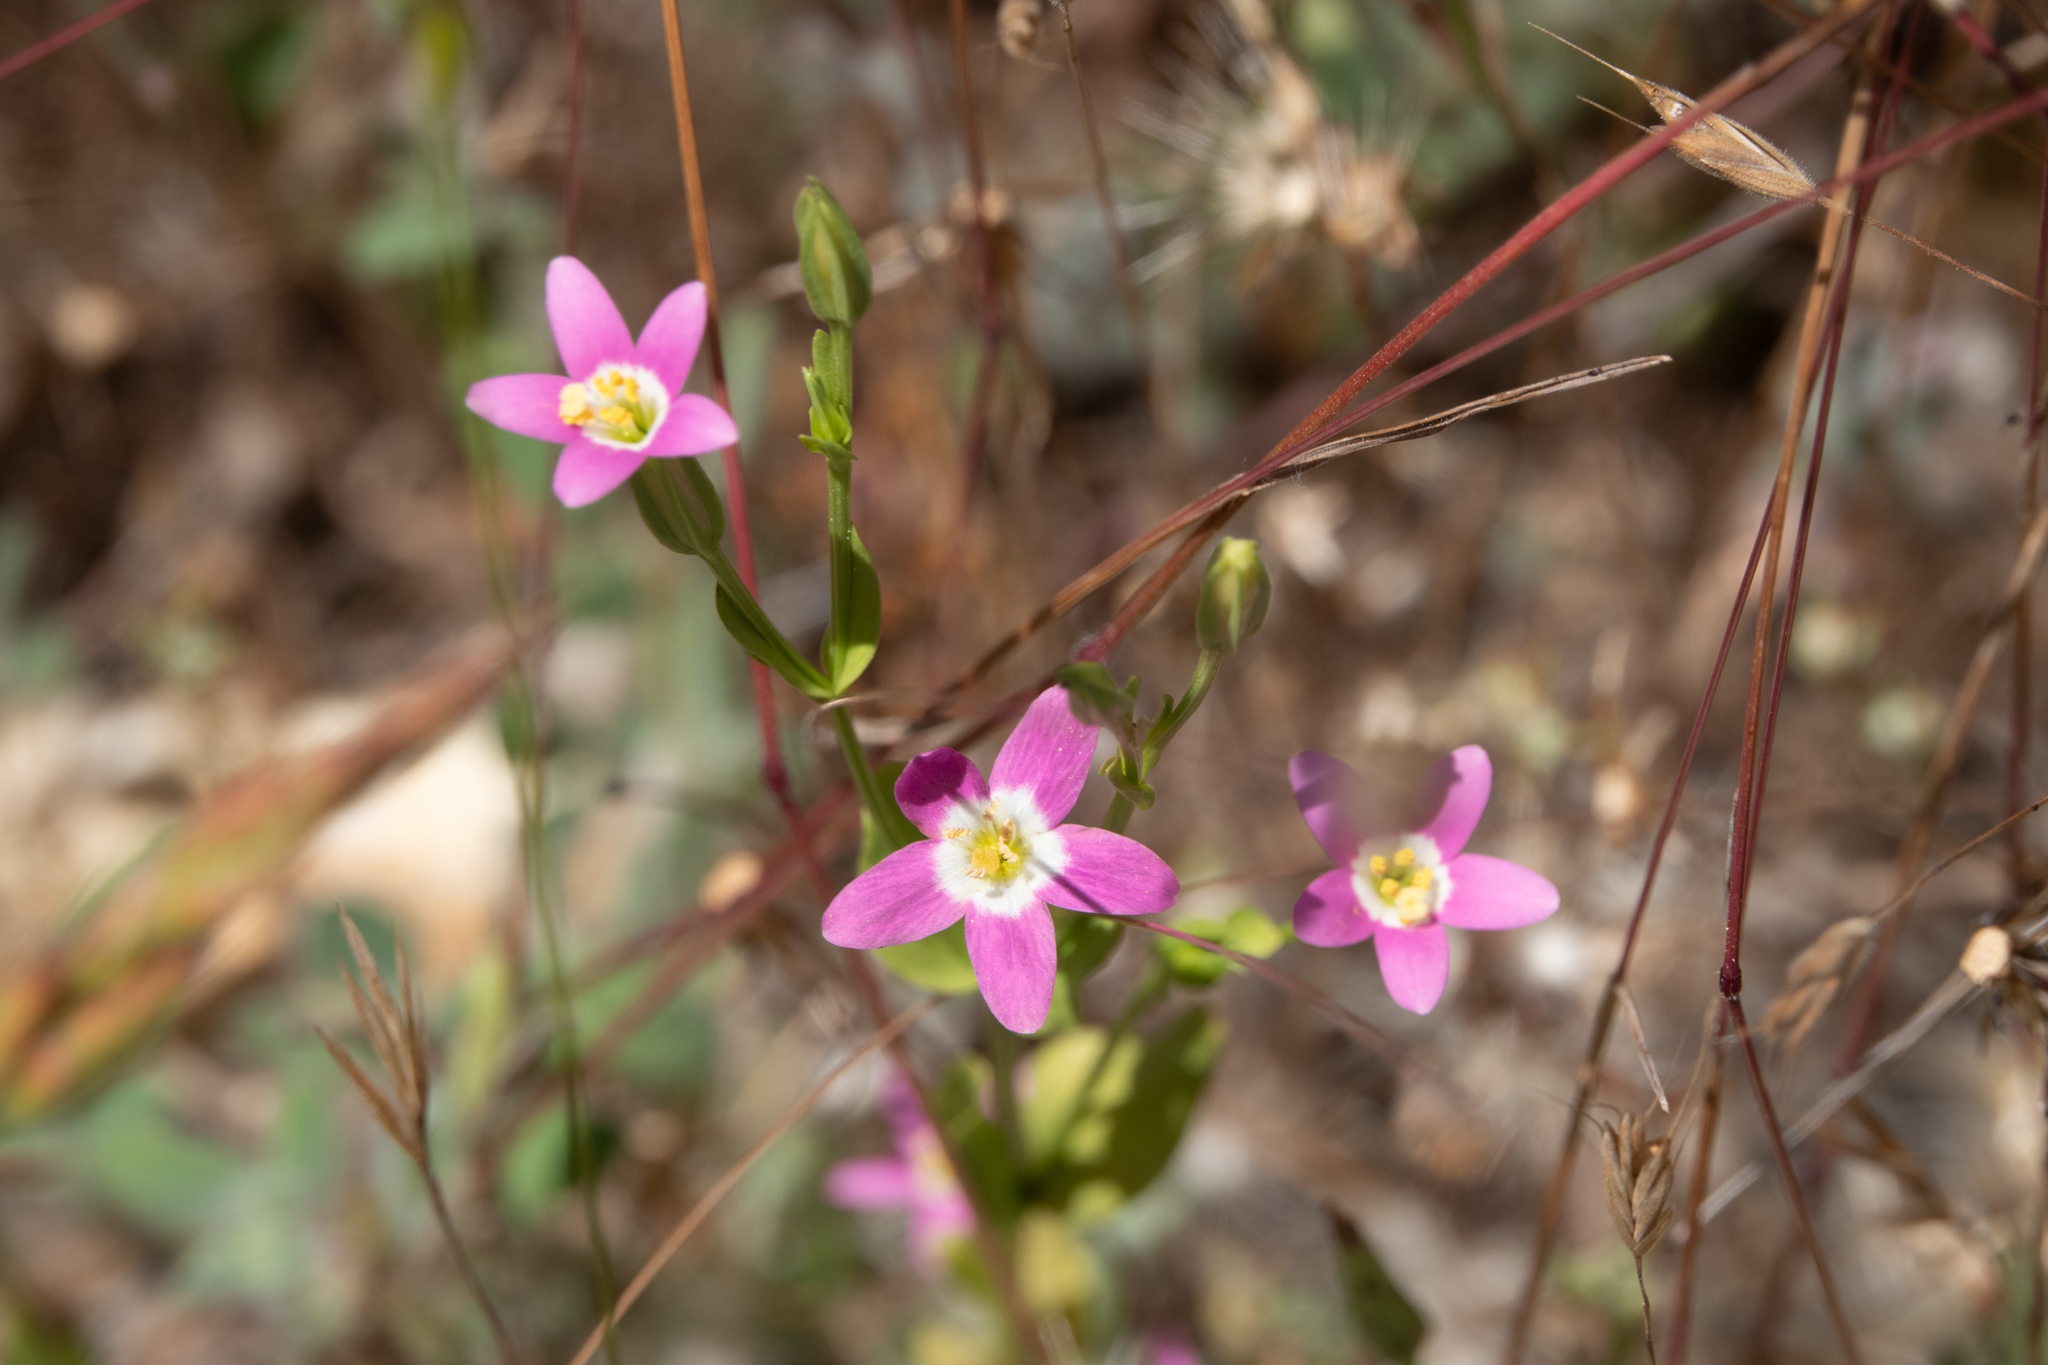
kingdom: Plantae
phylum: Tracheophyta
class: Magnoliopsida
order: Gentianales
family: Gentianaceae
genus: Zeltnera
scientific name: Zeltnera davyi
